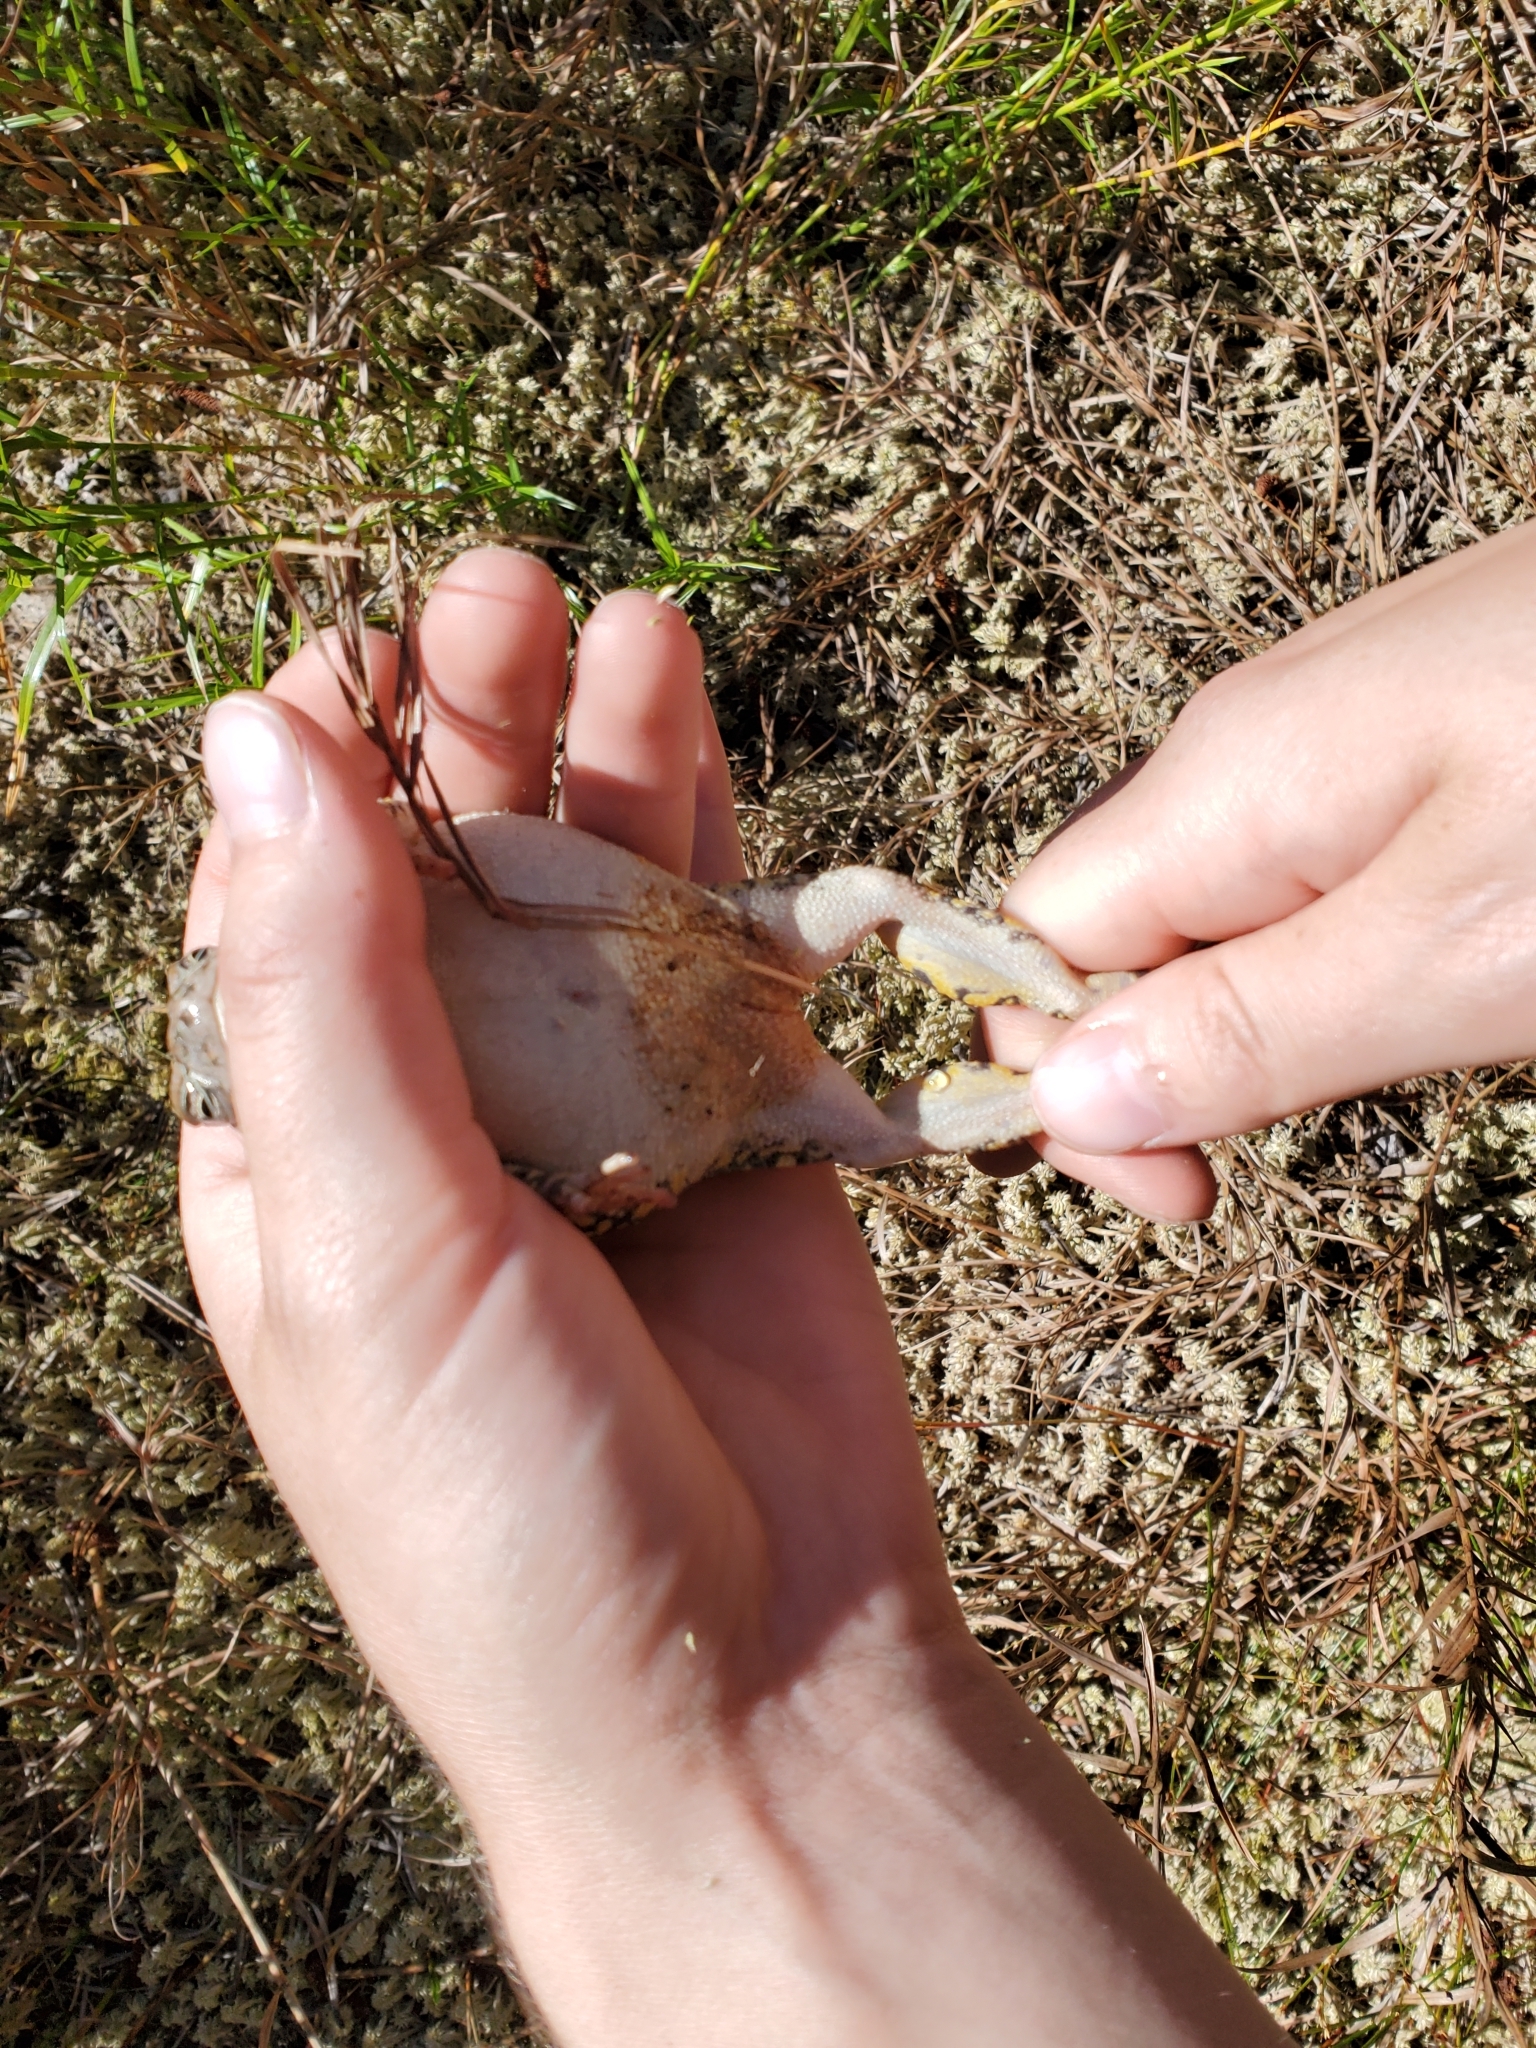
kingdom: Animalia
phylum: Chordata
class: Amphibia
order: Anura
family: Bufonidae
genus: Anaxyrus
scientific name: Anaxyrus fowleri
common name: Fowler's toad
